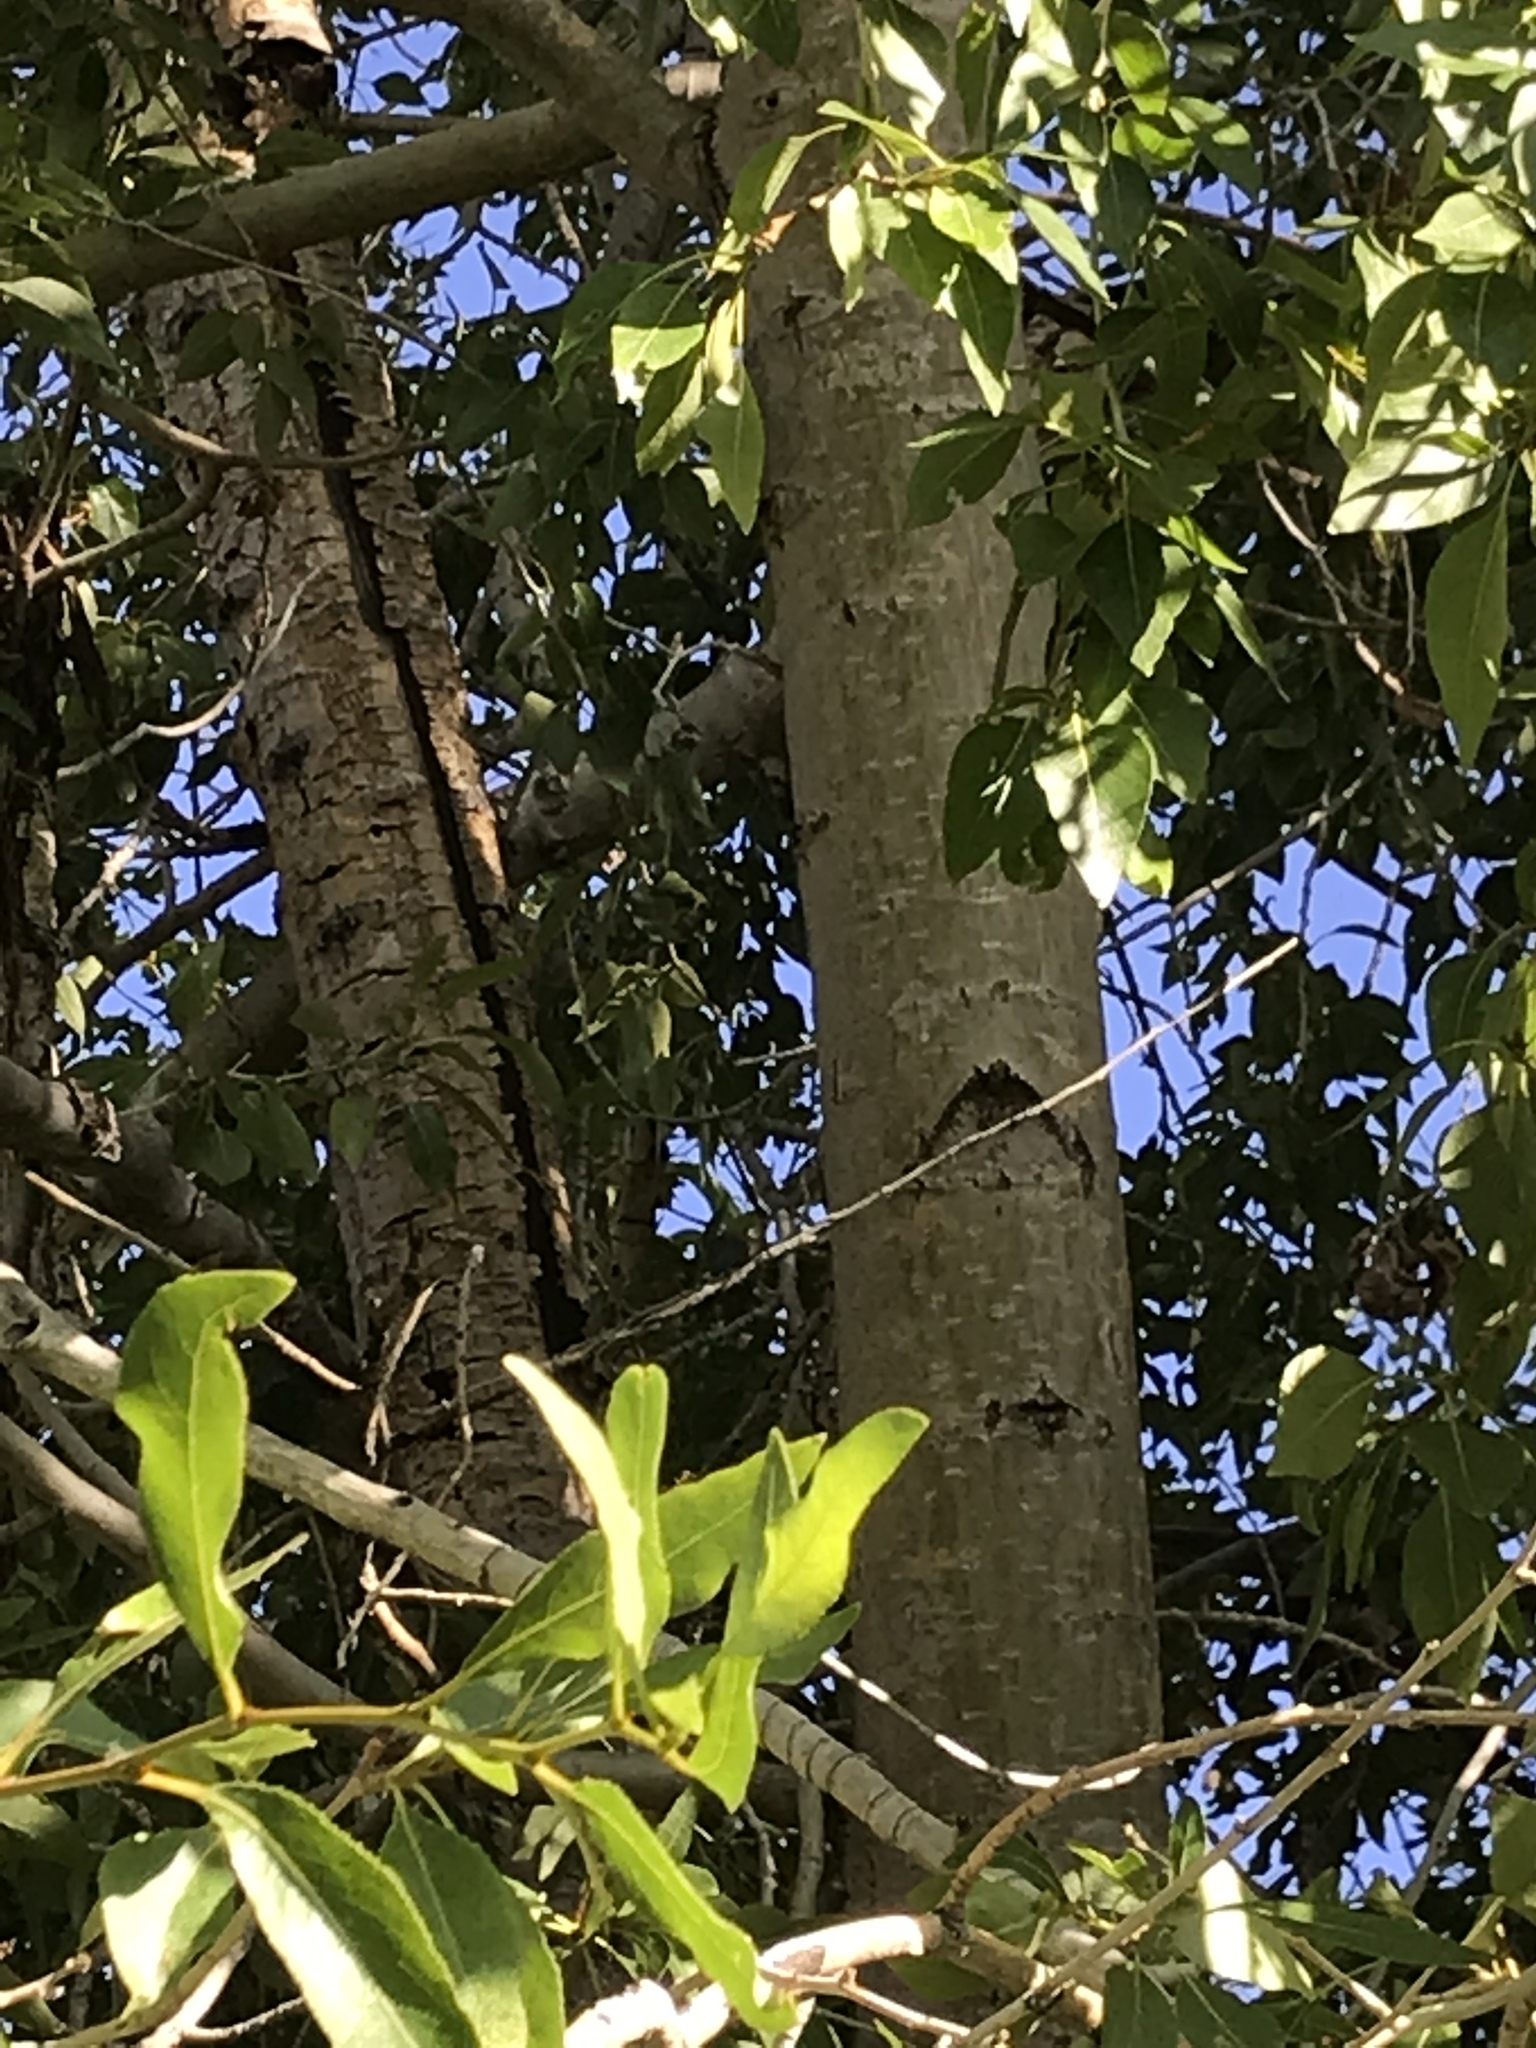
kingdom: Plantae
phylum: Tracheophyta
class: Magnoliopsida
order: Malpighiales
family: Salicaceae
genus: Populus
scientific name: Populus angustifolia
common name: Willow cottonwood
